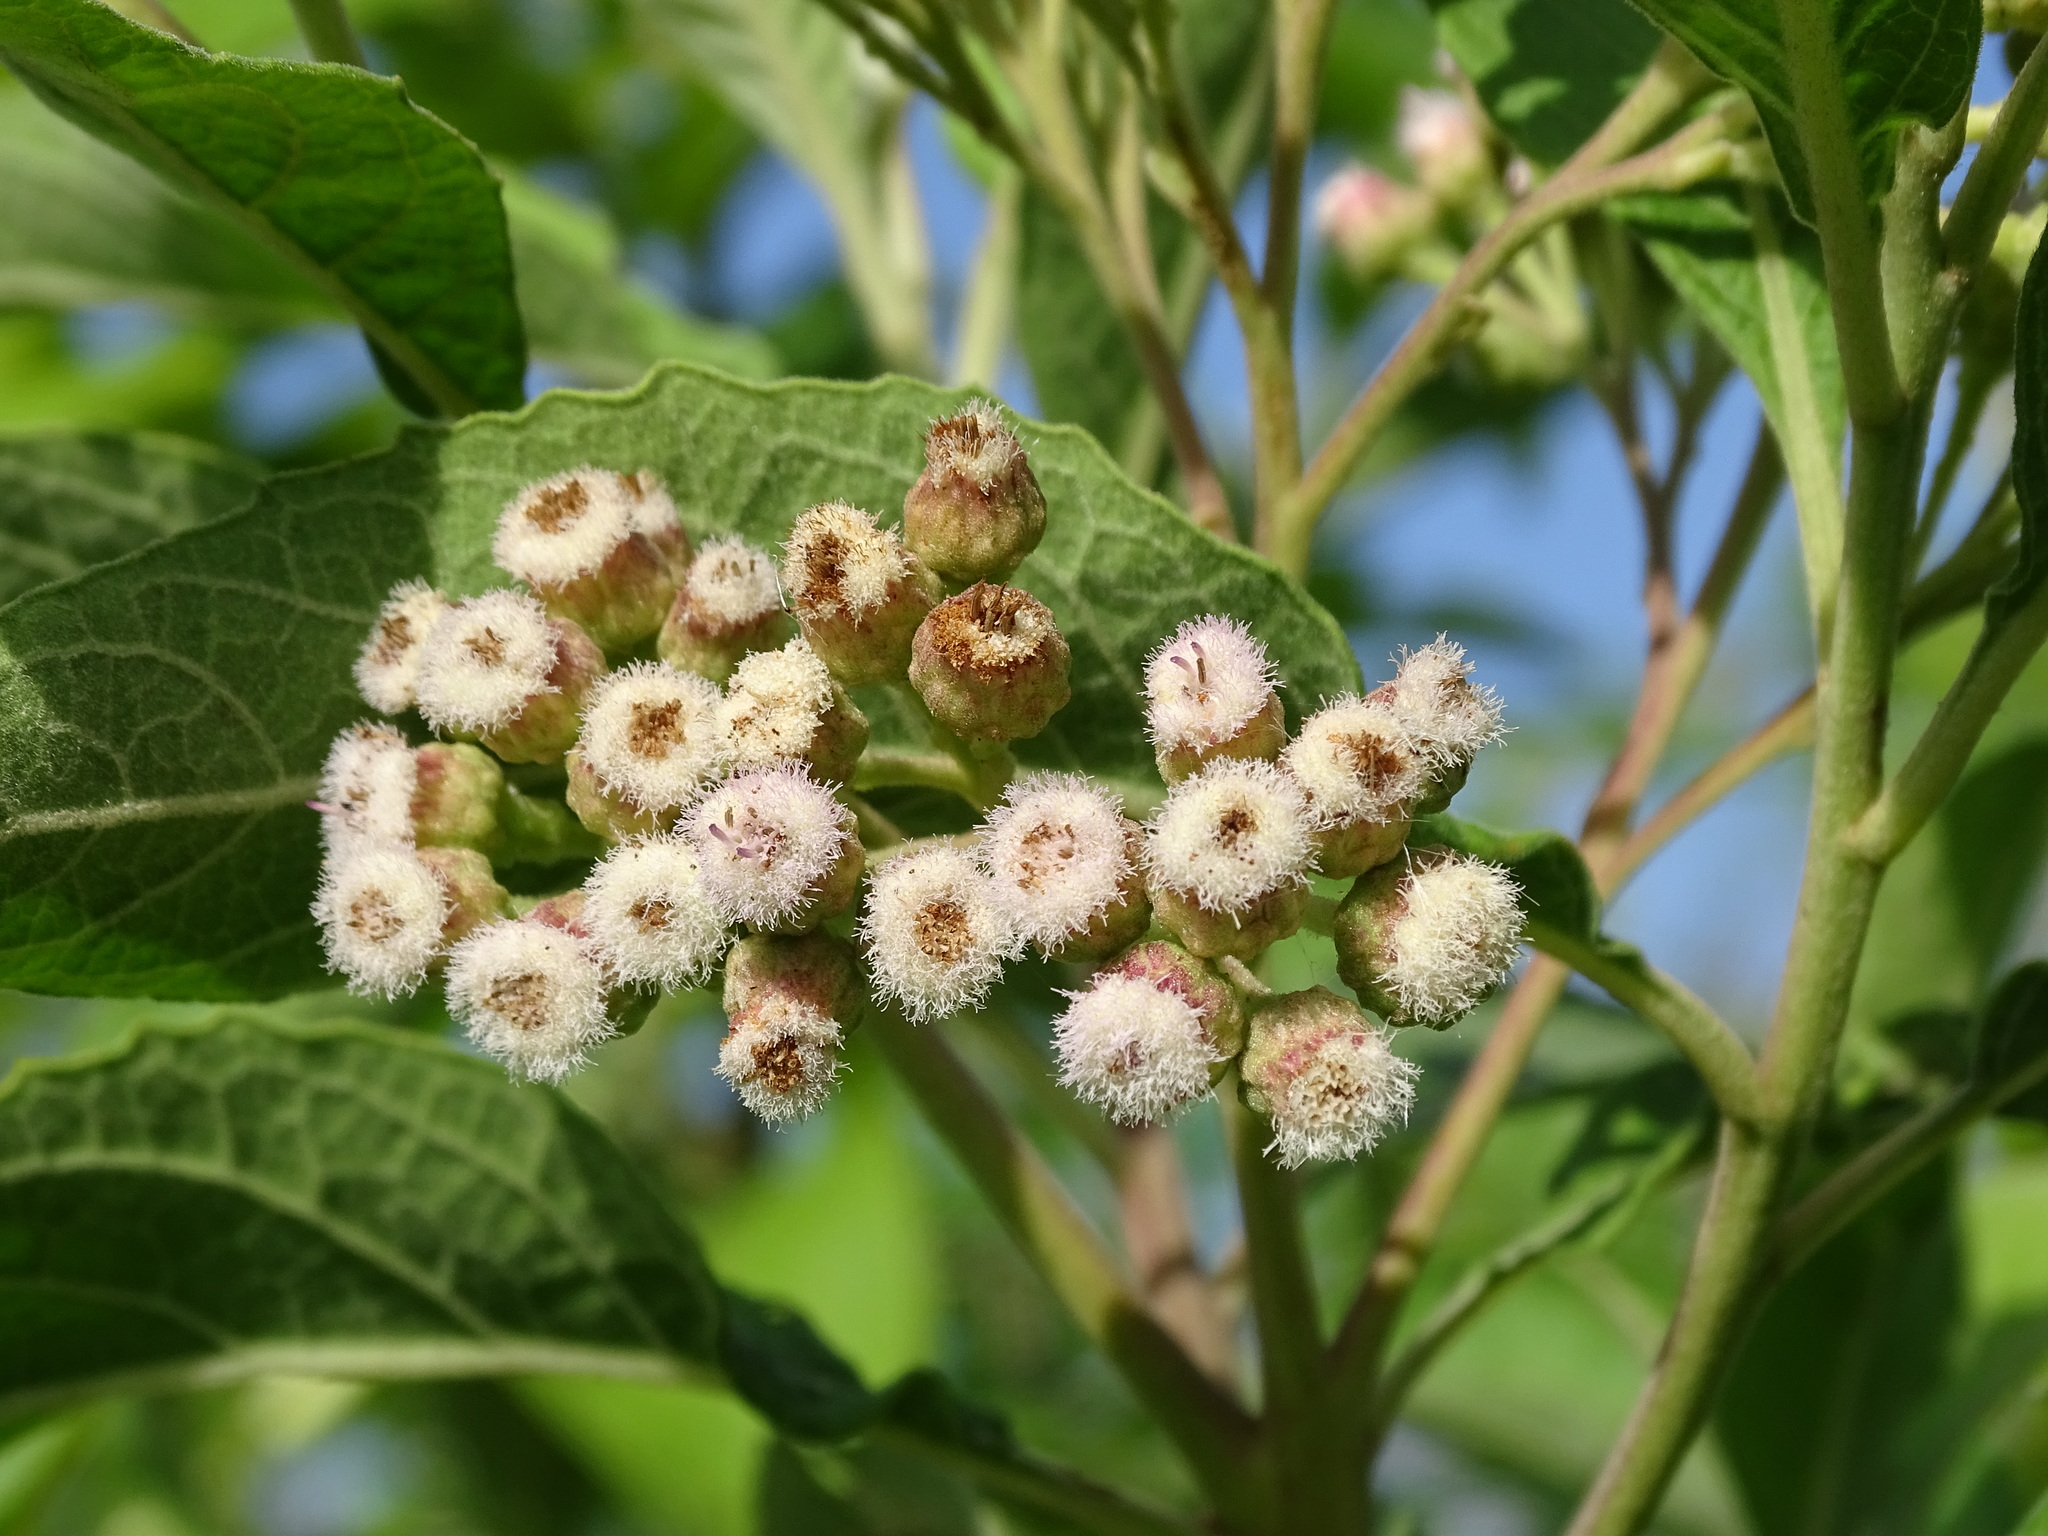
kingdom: Plantae
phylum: Tracheophyta
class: Magnoliopsida
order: Asterales
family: Asteraceae
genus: Pluchea
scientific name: Pluchea carolinensis
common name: Marsh fleabane
